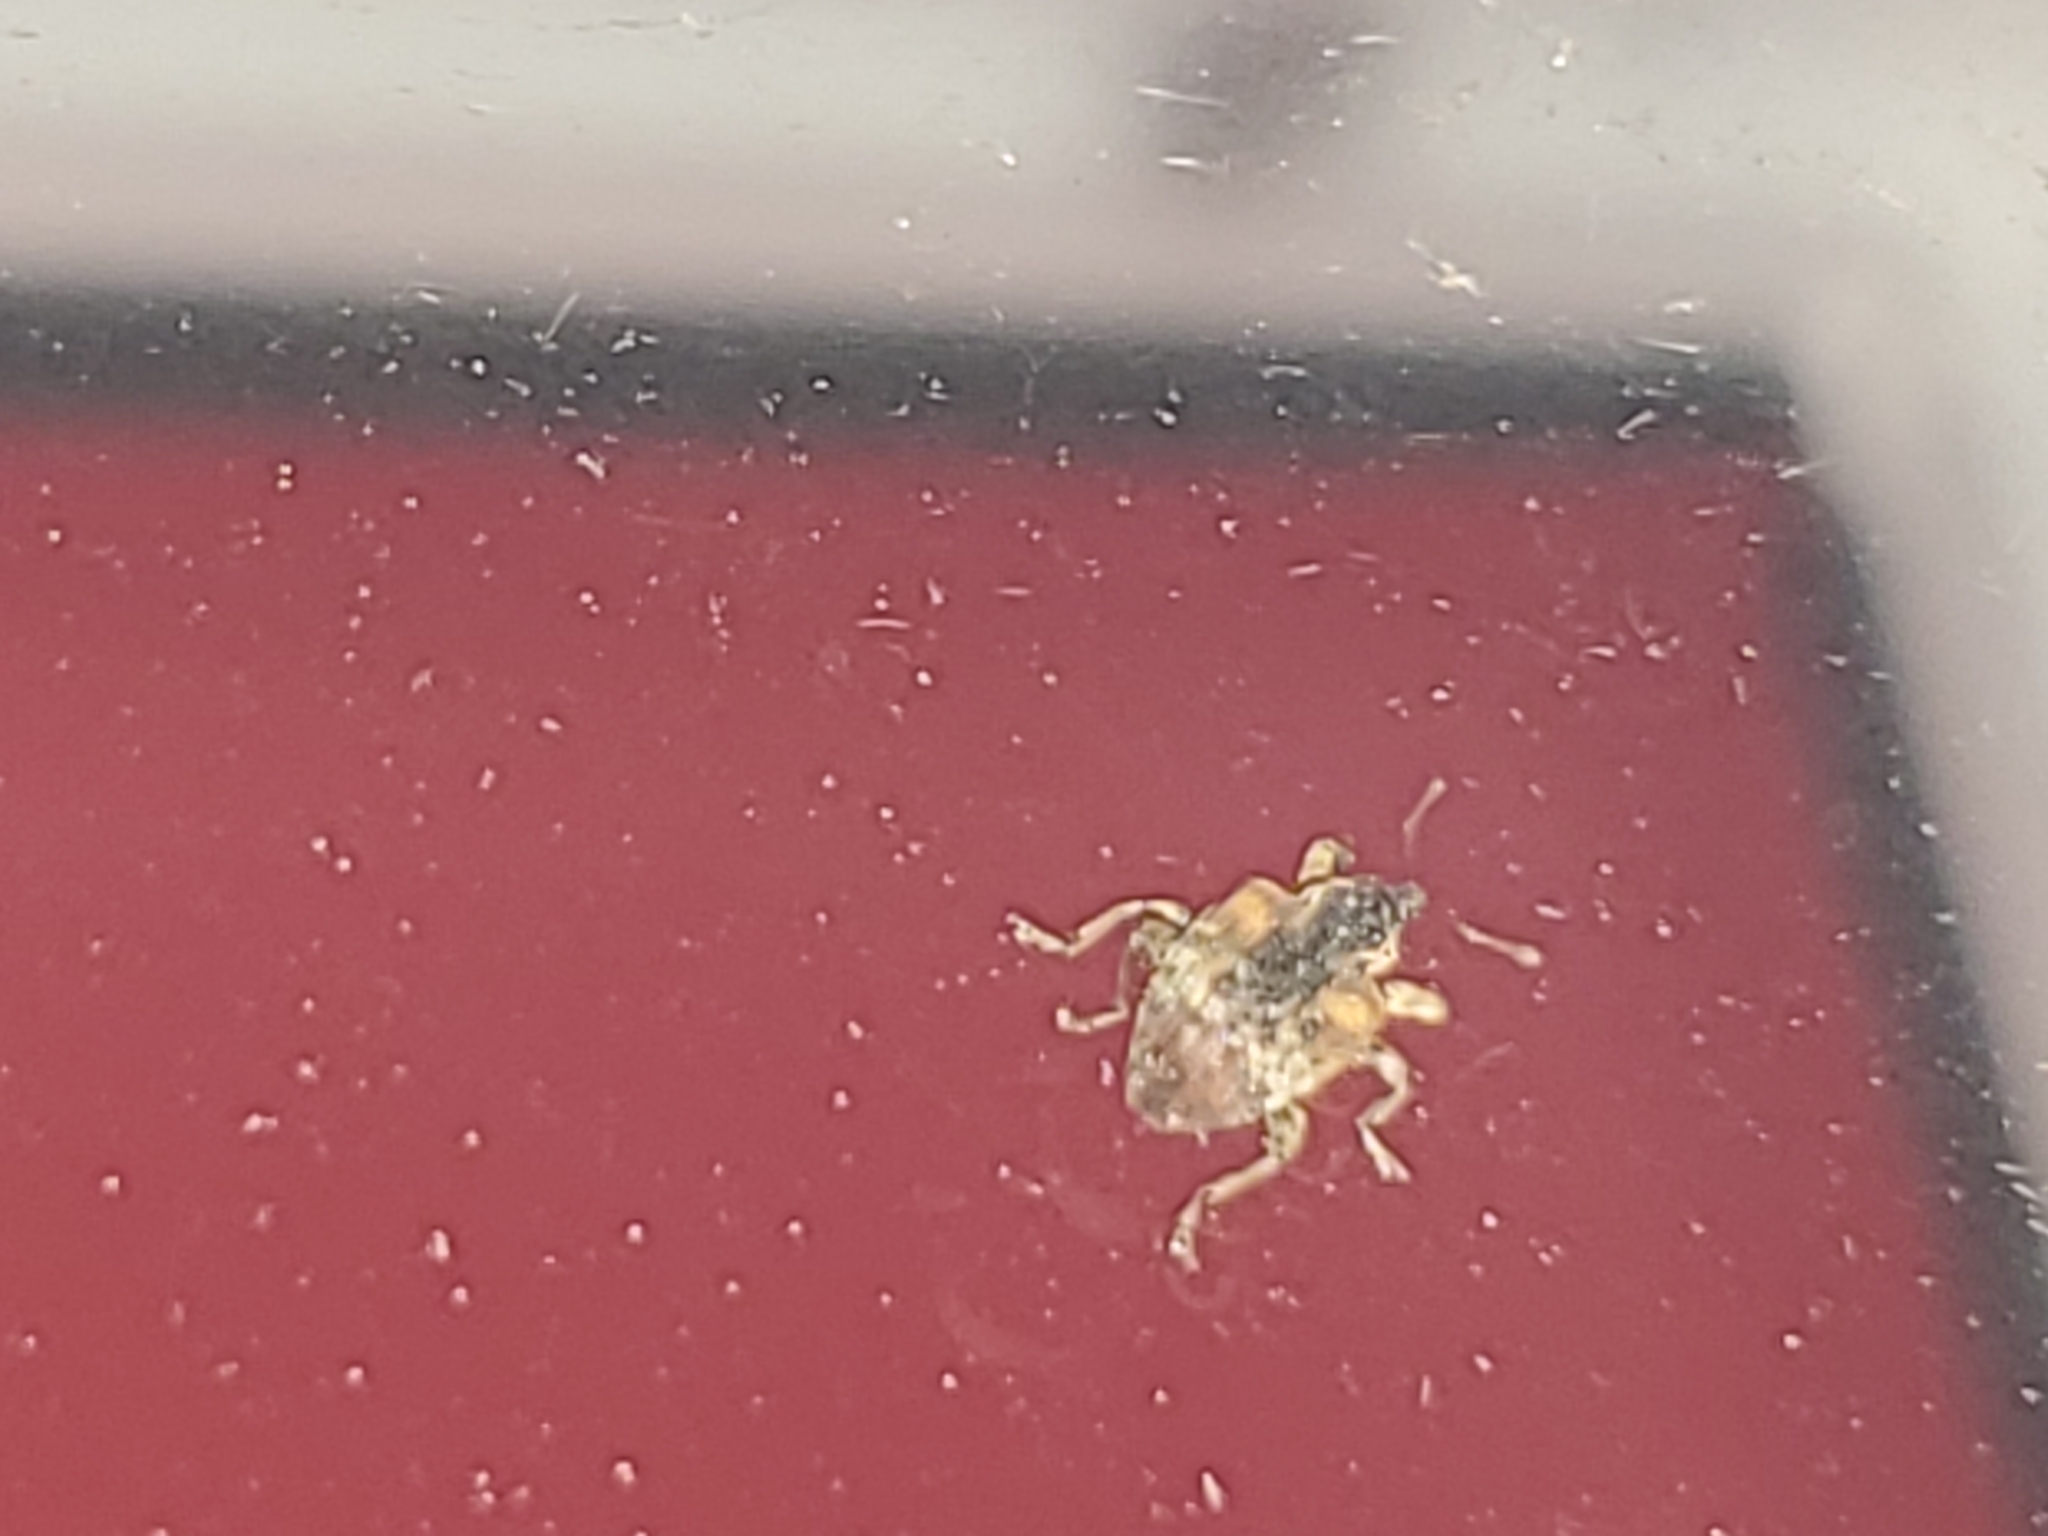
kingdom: Animalia
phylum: Arthropoda
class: Insecta
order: Coleoptera
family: Curculionidae
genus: Conotrachelus
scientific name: Conotrachelus anaglypticus
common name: Cambium curculio
